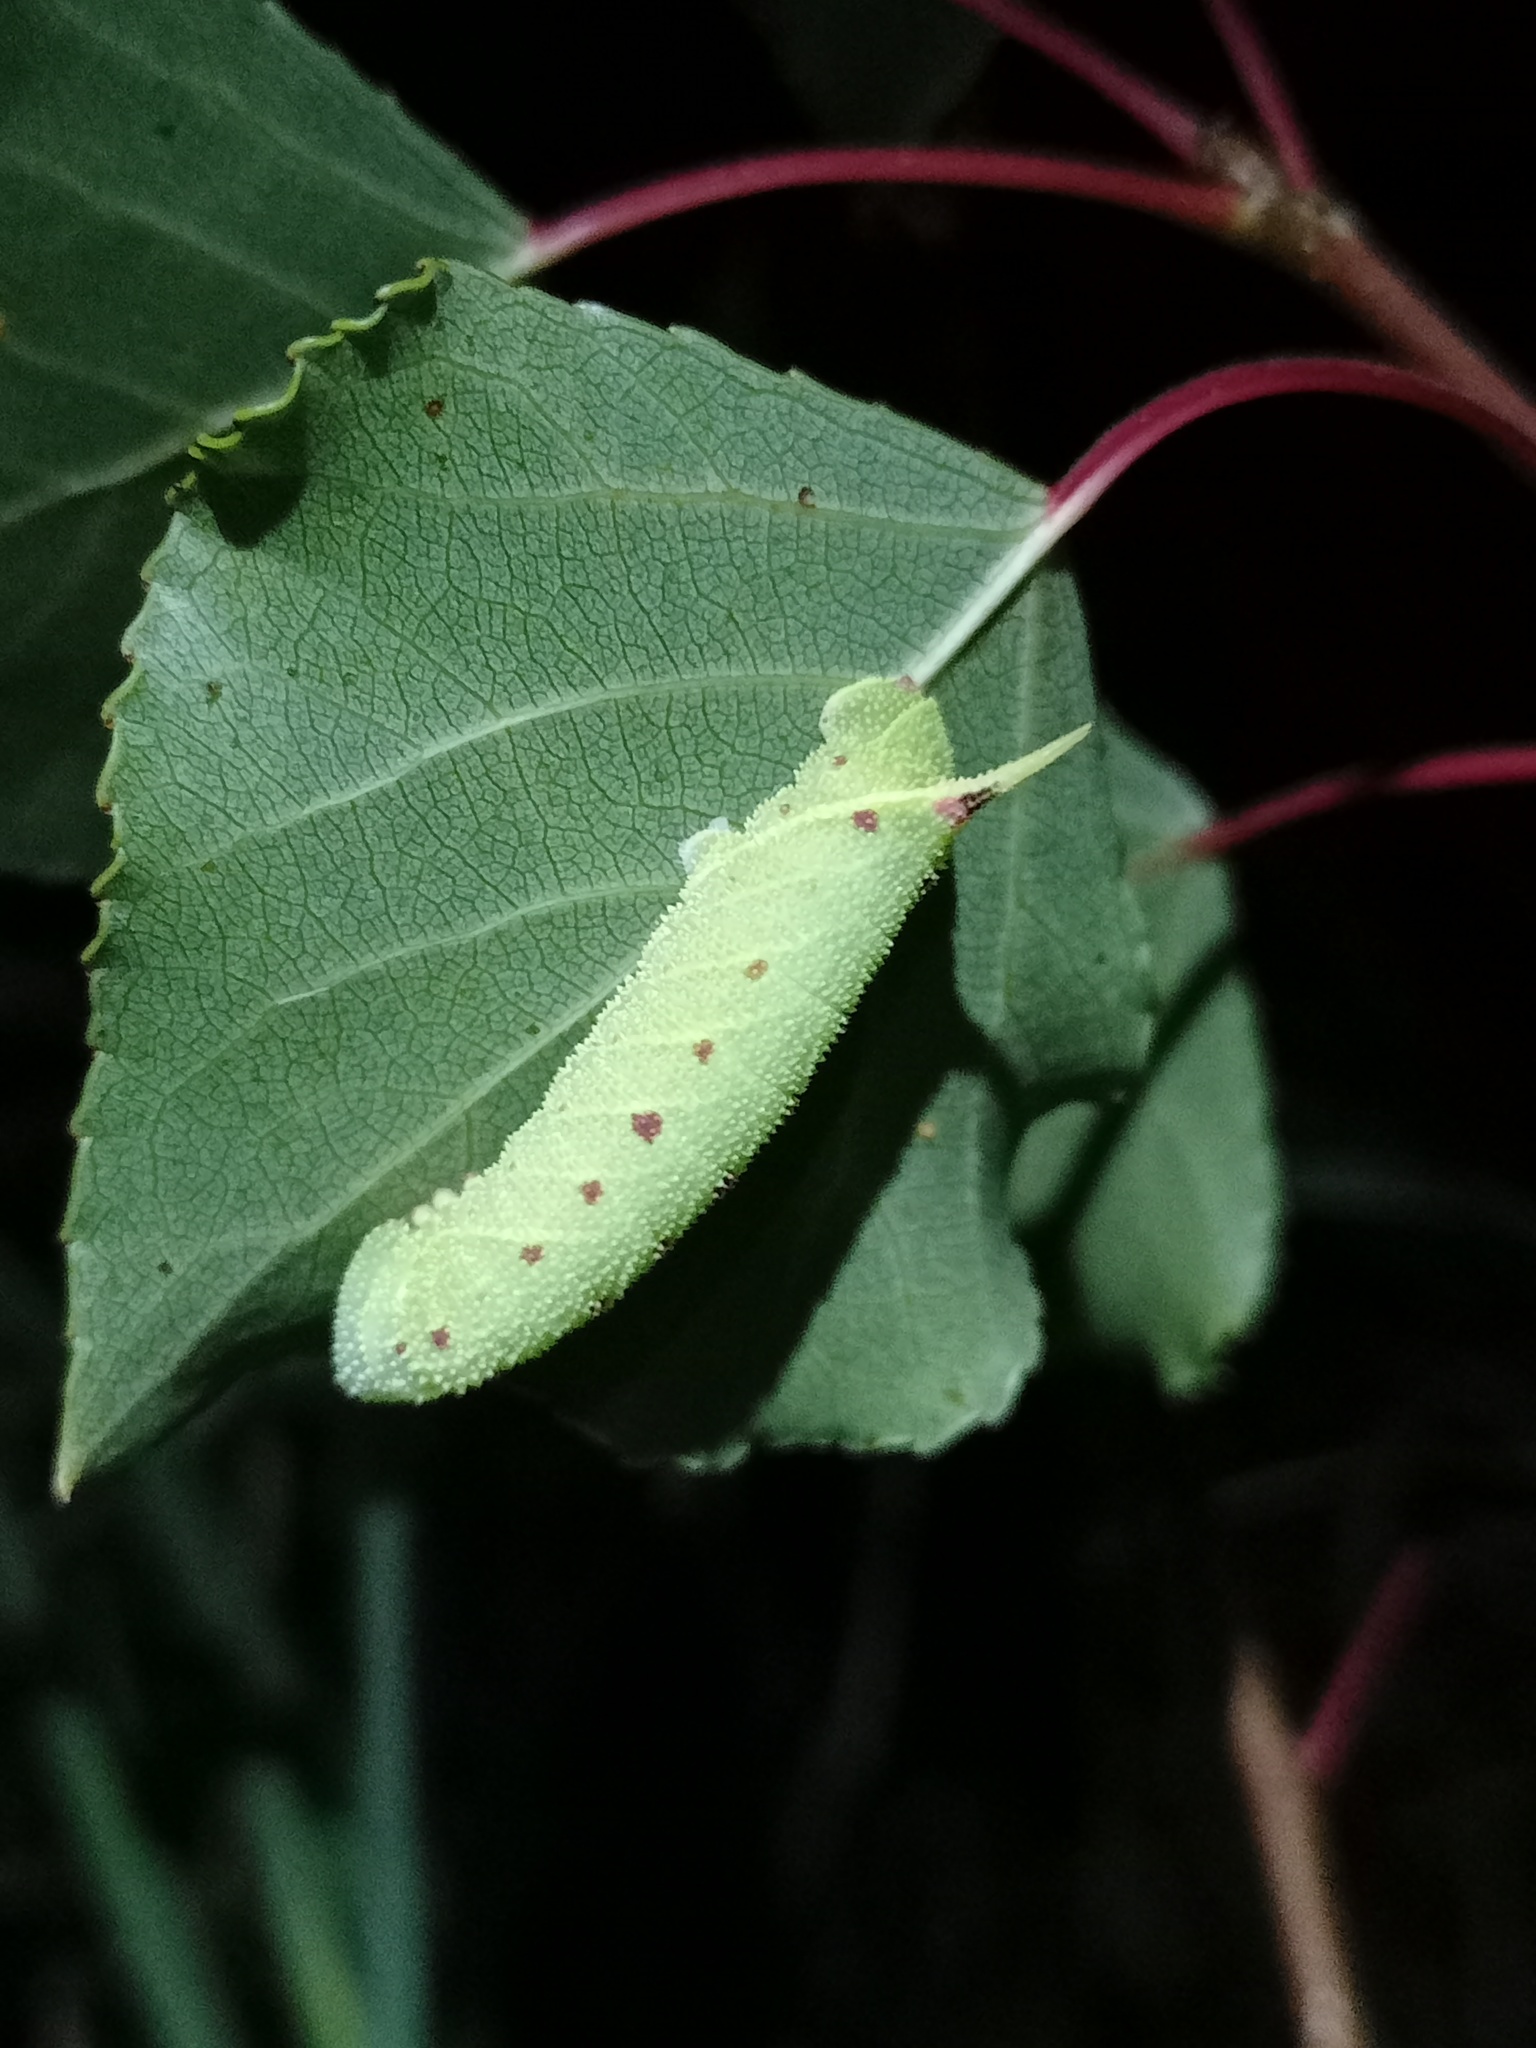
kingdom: Animalia
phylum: Arthropoda
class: Insecta
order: Lepidoptera
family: Sphingidae
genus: Laothoe
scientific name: Laothoe populi
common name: Poplar hawk-moth
